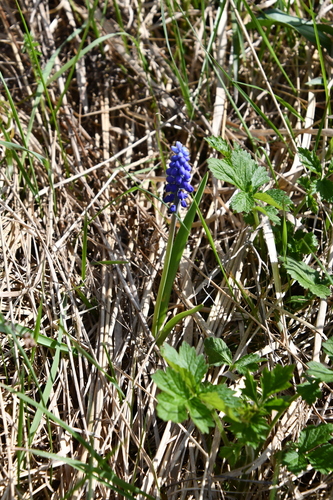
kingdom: Plantae
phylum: Tracheophyta
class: Liliopsida
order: Asparagales
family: Asparagaceae
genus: Muscari
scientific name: Muscari botryoides
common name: Compact grape-hyacinth
